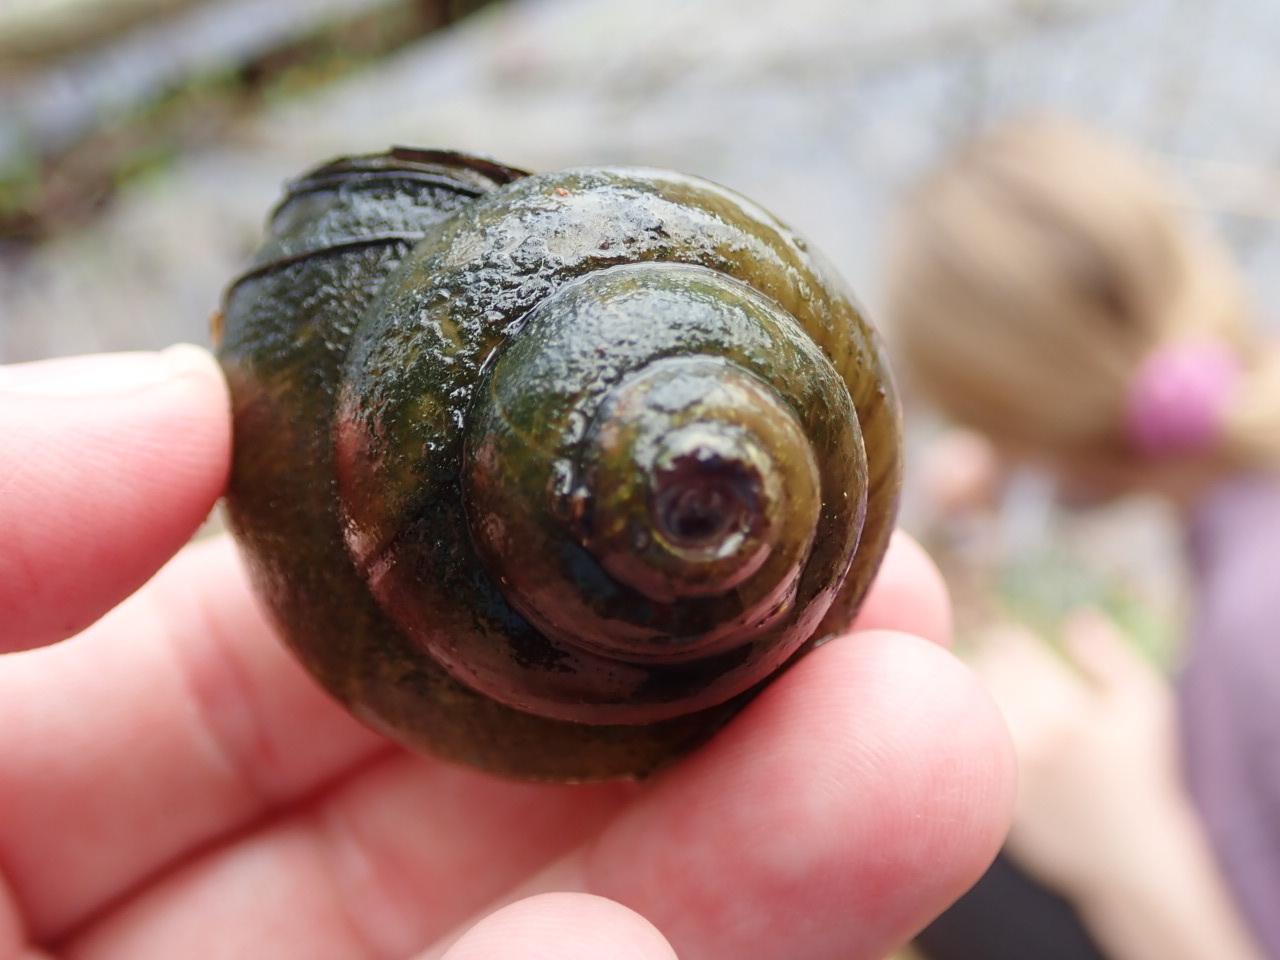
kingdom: Animalia
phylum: Mollusca
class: Gastropoda
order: Architaenioglossa
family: Viviparidae
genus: Cipangopaludina
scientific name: Cipangopaludina chinensis
